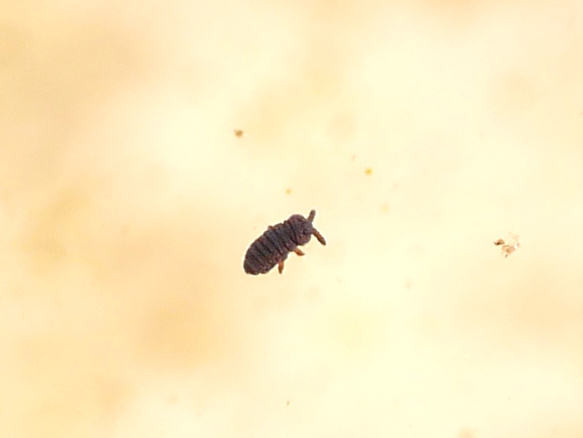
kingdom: Animalia
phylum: Arthropoda
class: Collembola
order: Poduromorpha
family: Poduridae
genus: Podura
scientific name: Podura aquatica
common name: Water springtail
